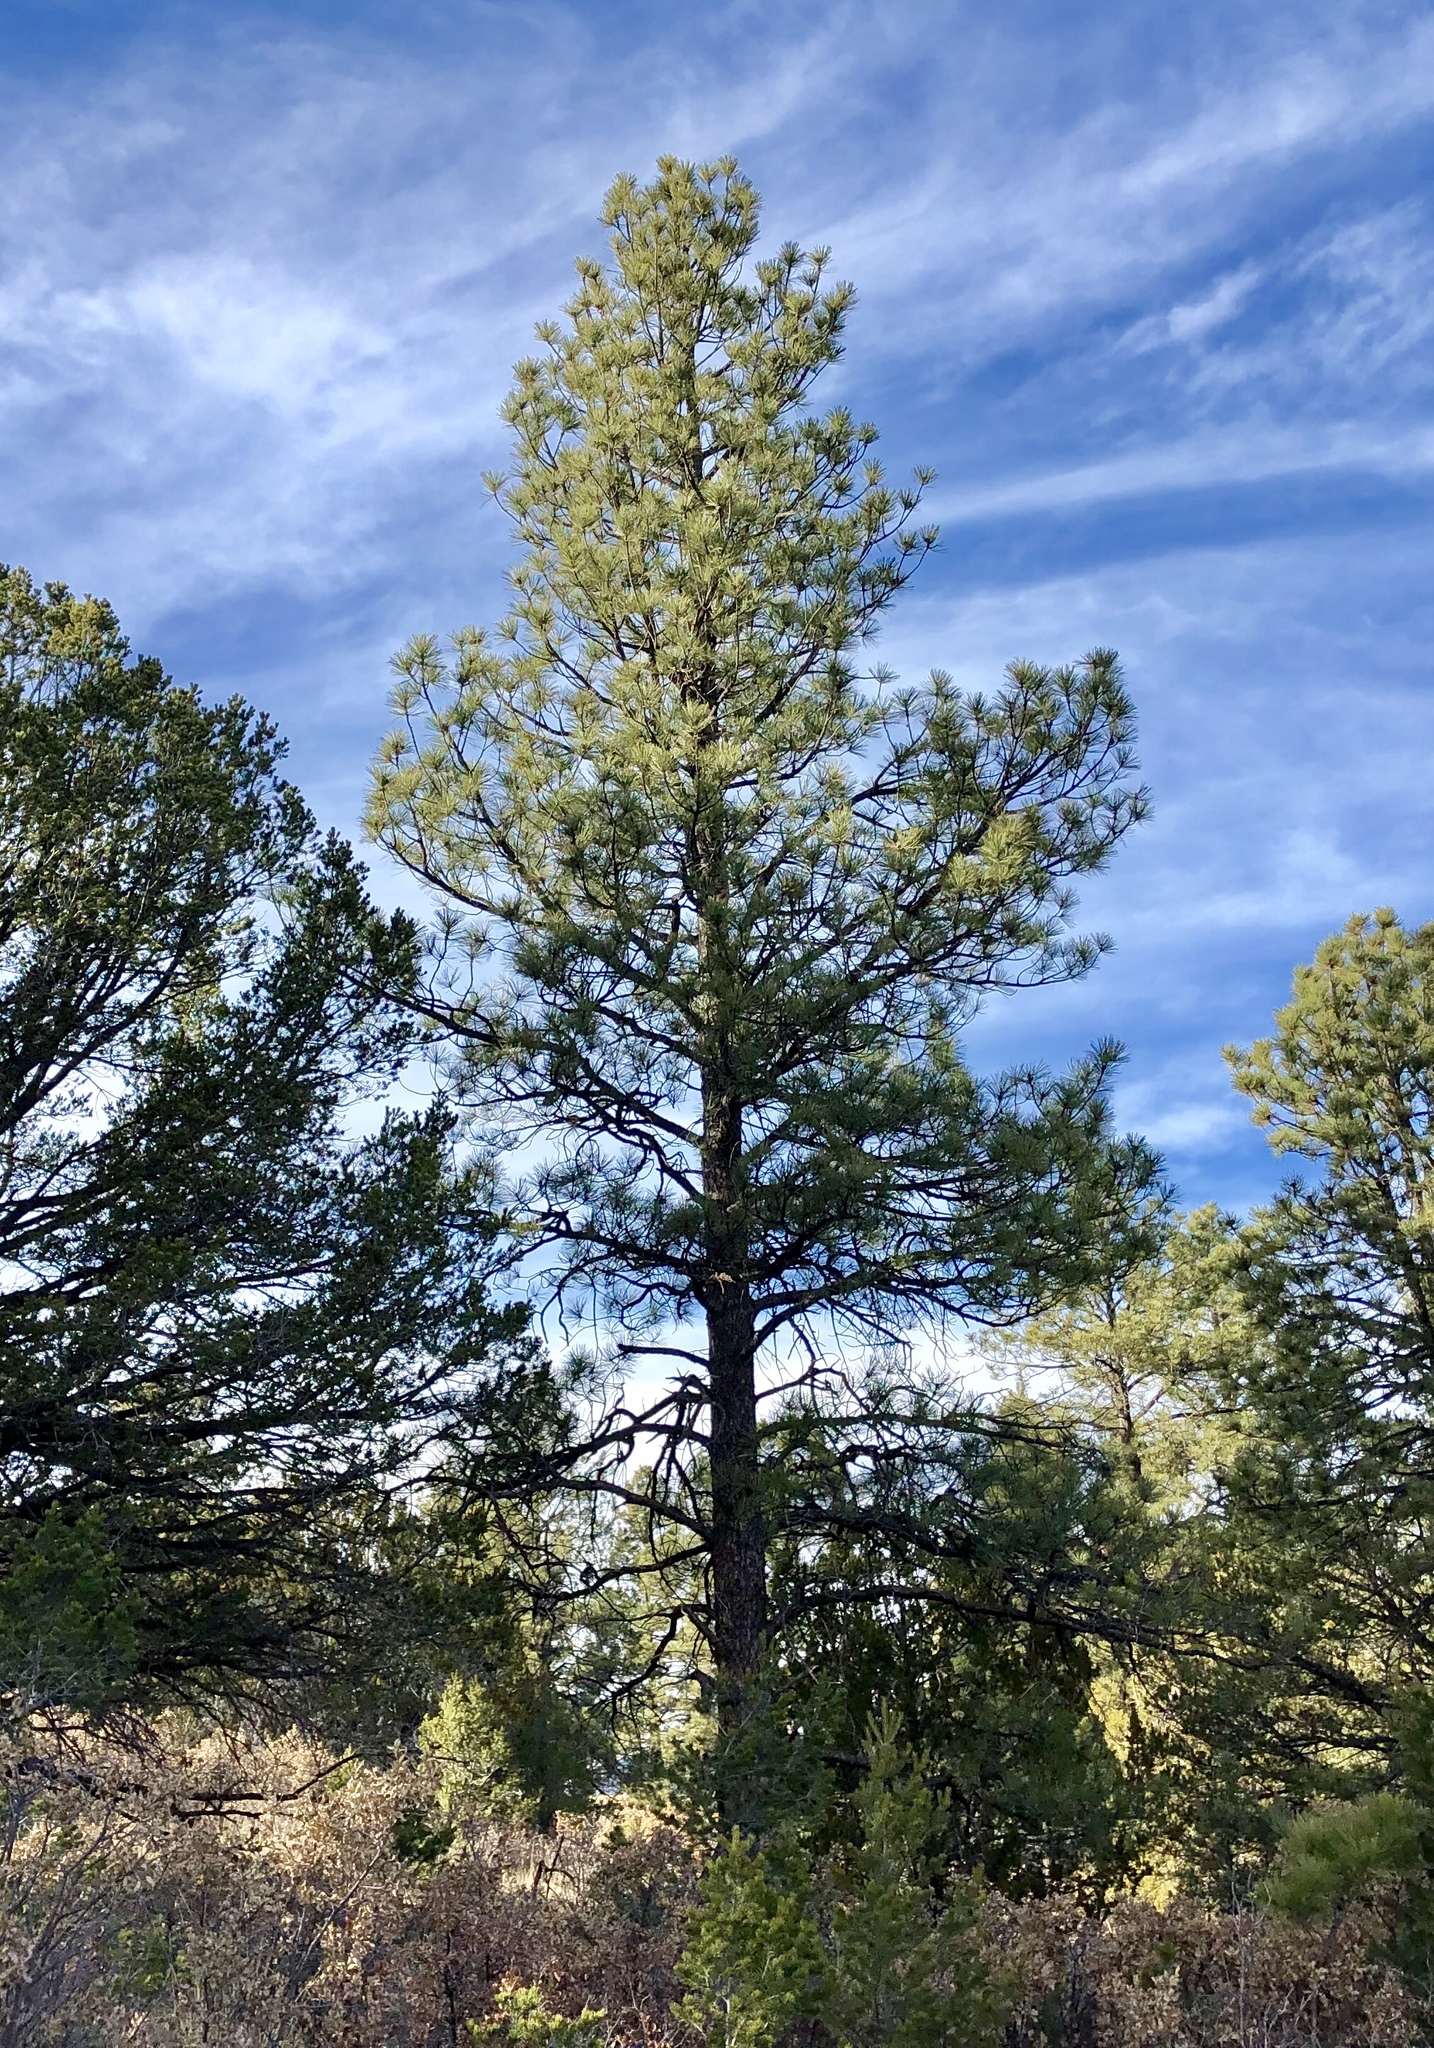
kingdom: Plantae
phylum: Tracheophyta
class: Pinopsida
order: Pinales
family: Pinaceae
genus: Pinus
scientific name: Pinus ponderosa
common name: Western yellow-pine
